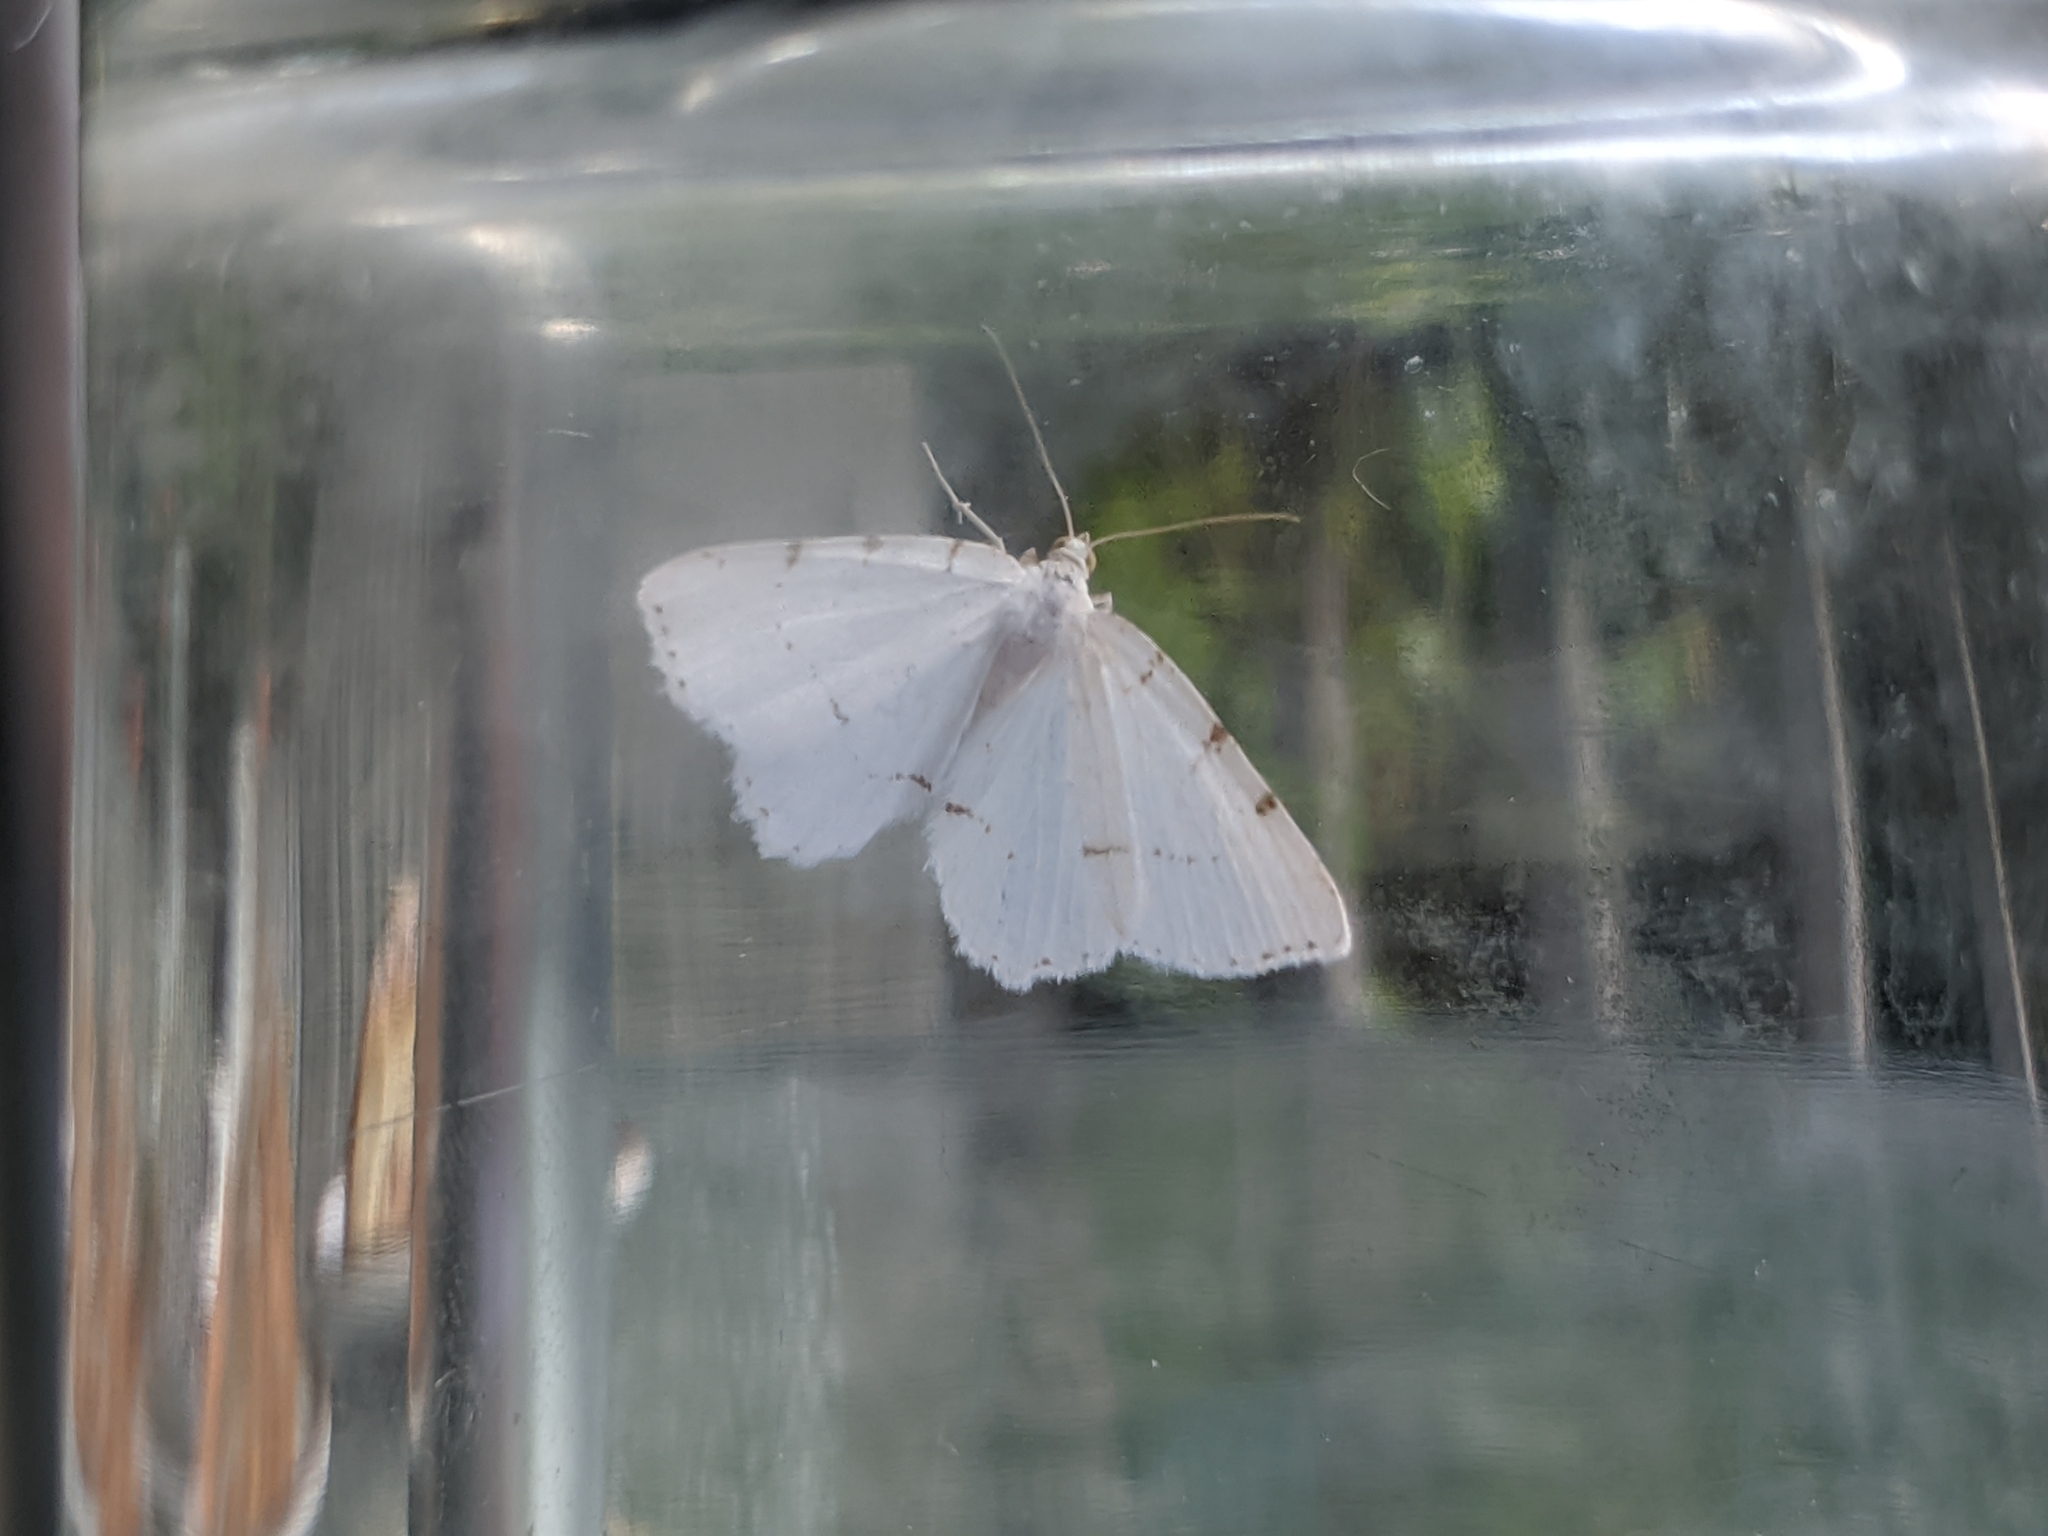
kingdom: Animalia
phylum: Arthropoda
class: Insecta
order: Lepidoptera
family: Geometridae
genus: Macaria
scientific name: Macaria pustularia
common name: Lesser maple spanworm moth
